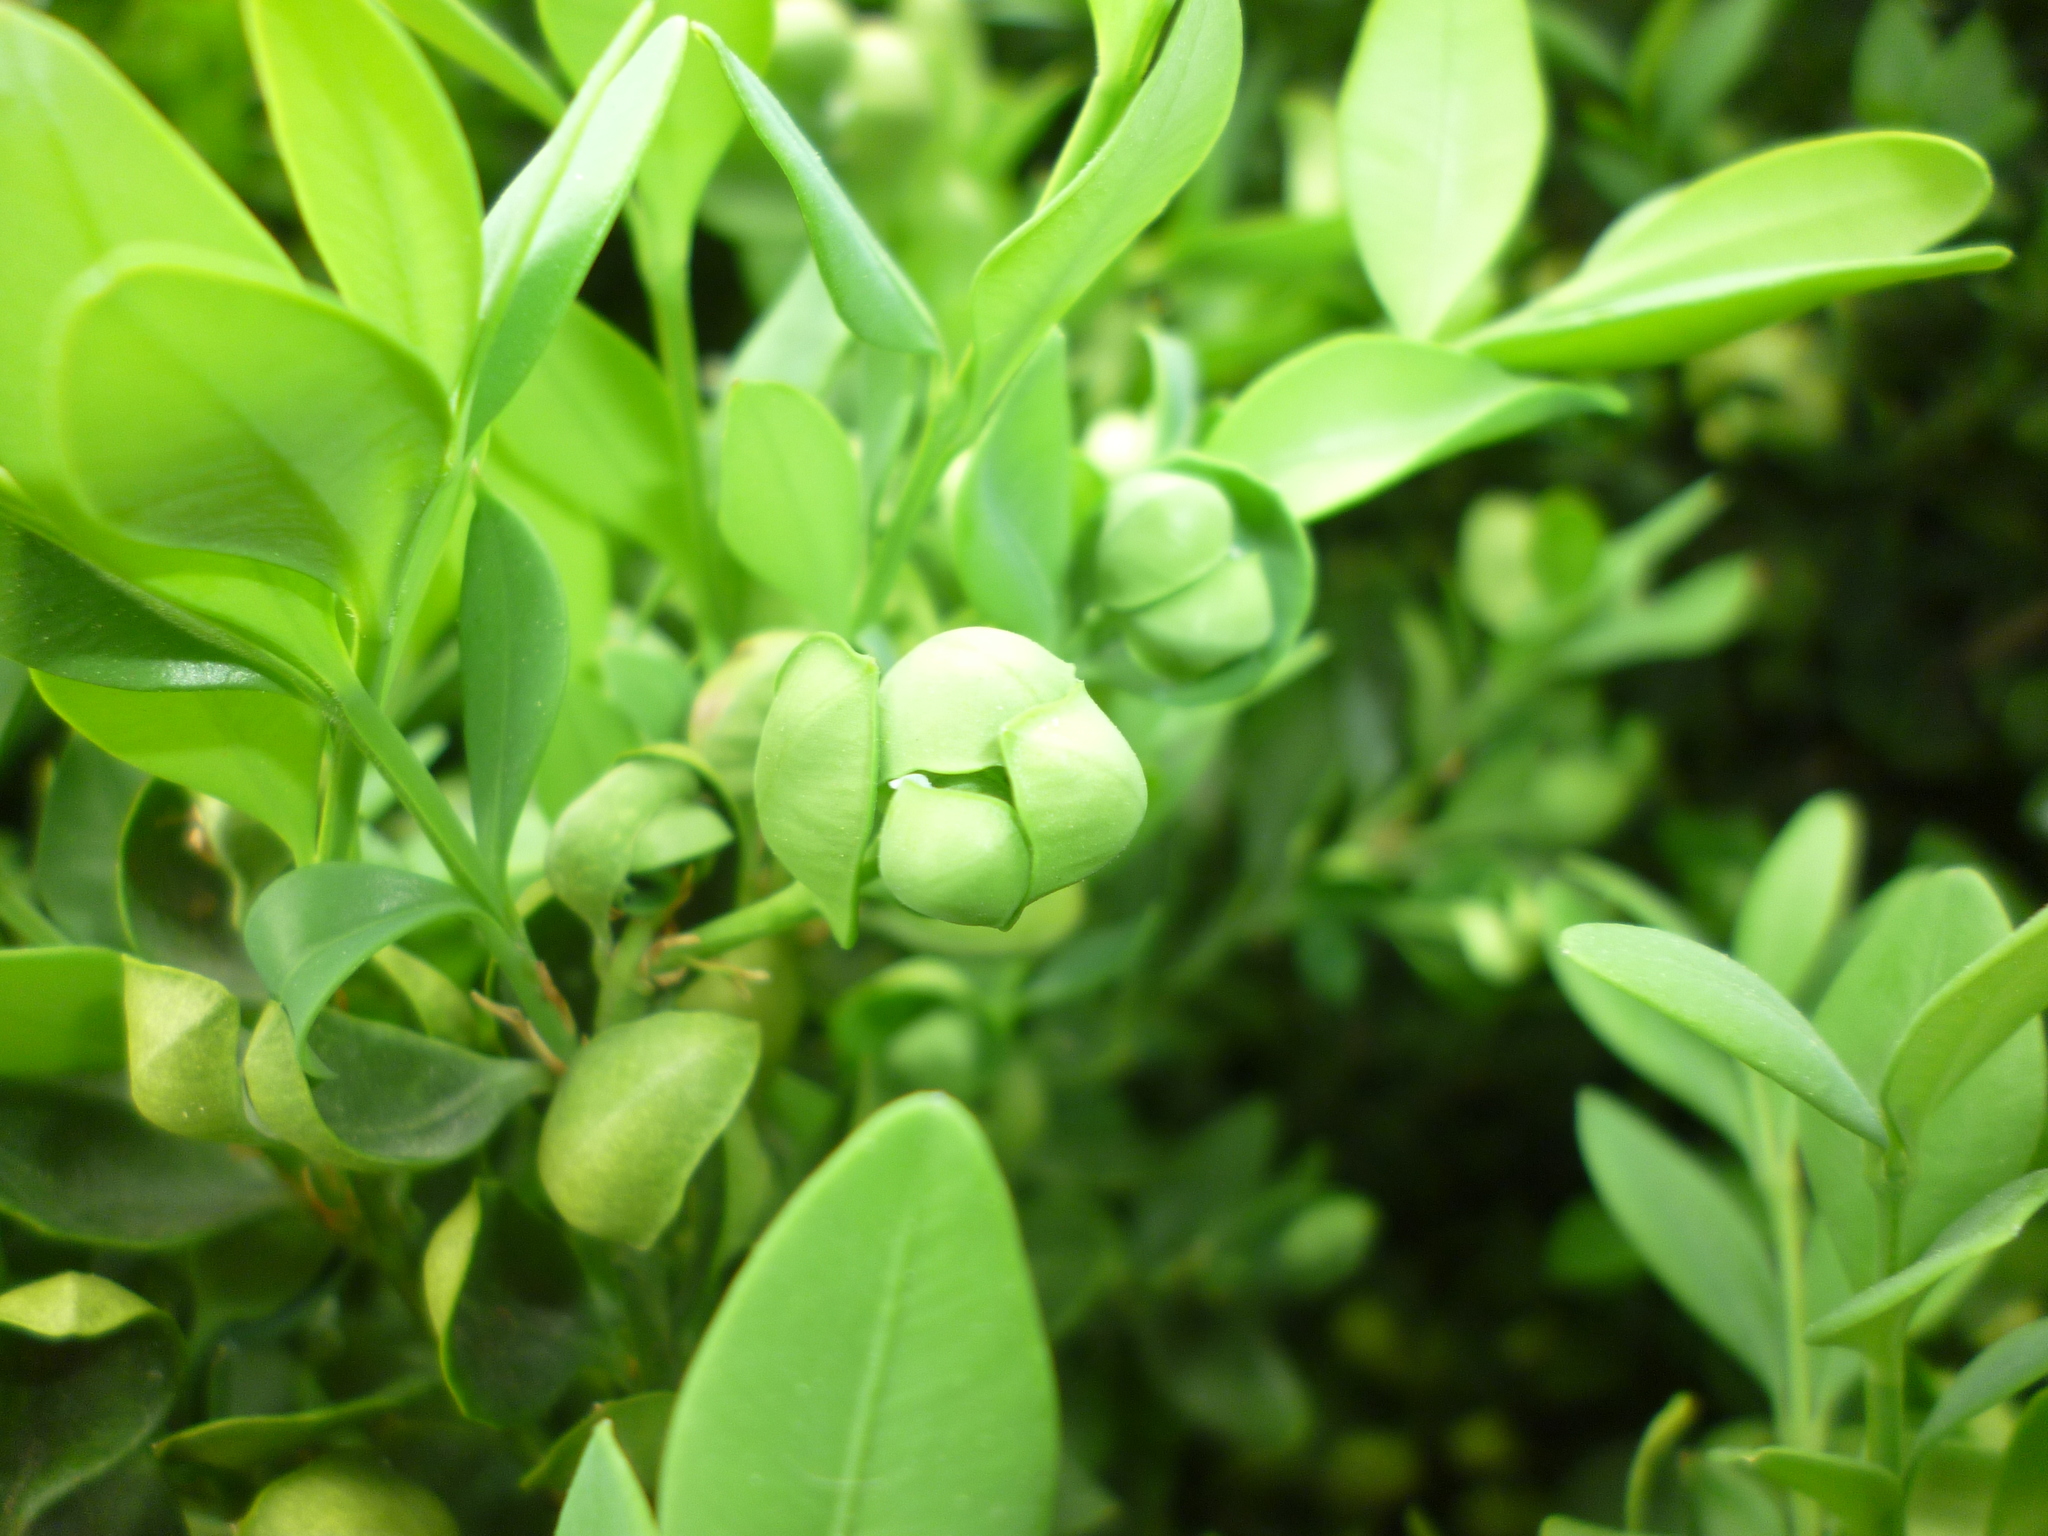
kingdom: Animalia
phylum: Arthropoda
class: Insecta
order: Hemiptera
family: Psyllidae
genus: Psylla
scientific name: Psylla buxi
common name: Boxwood psyllid
